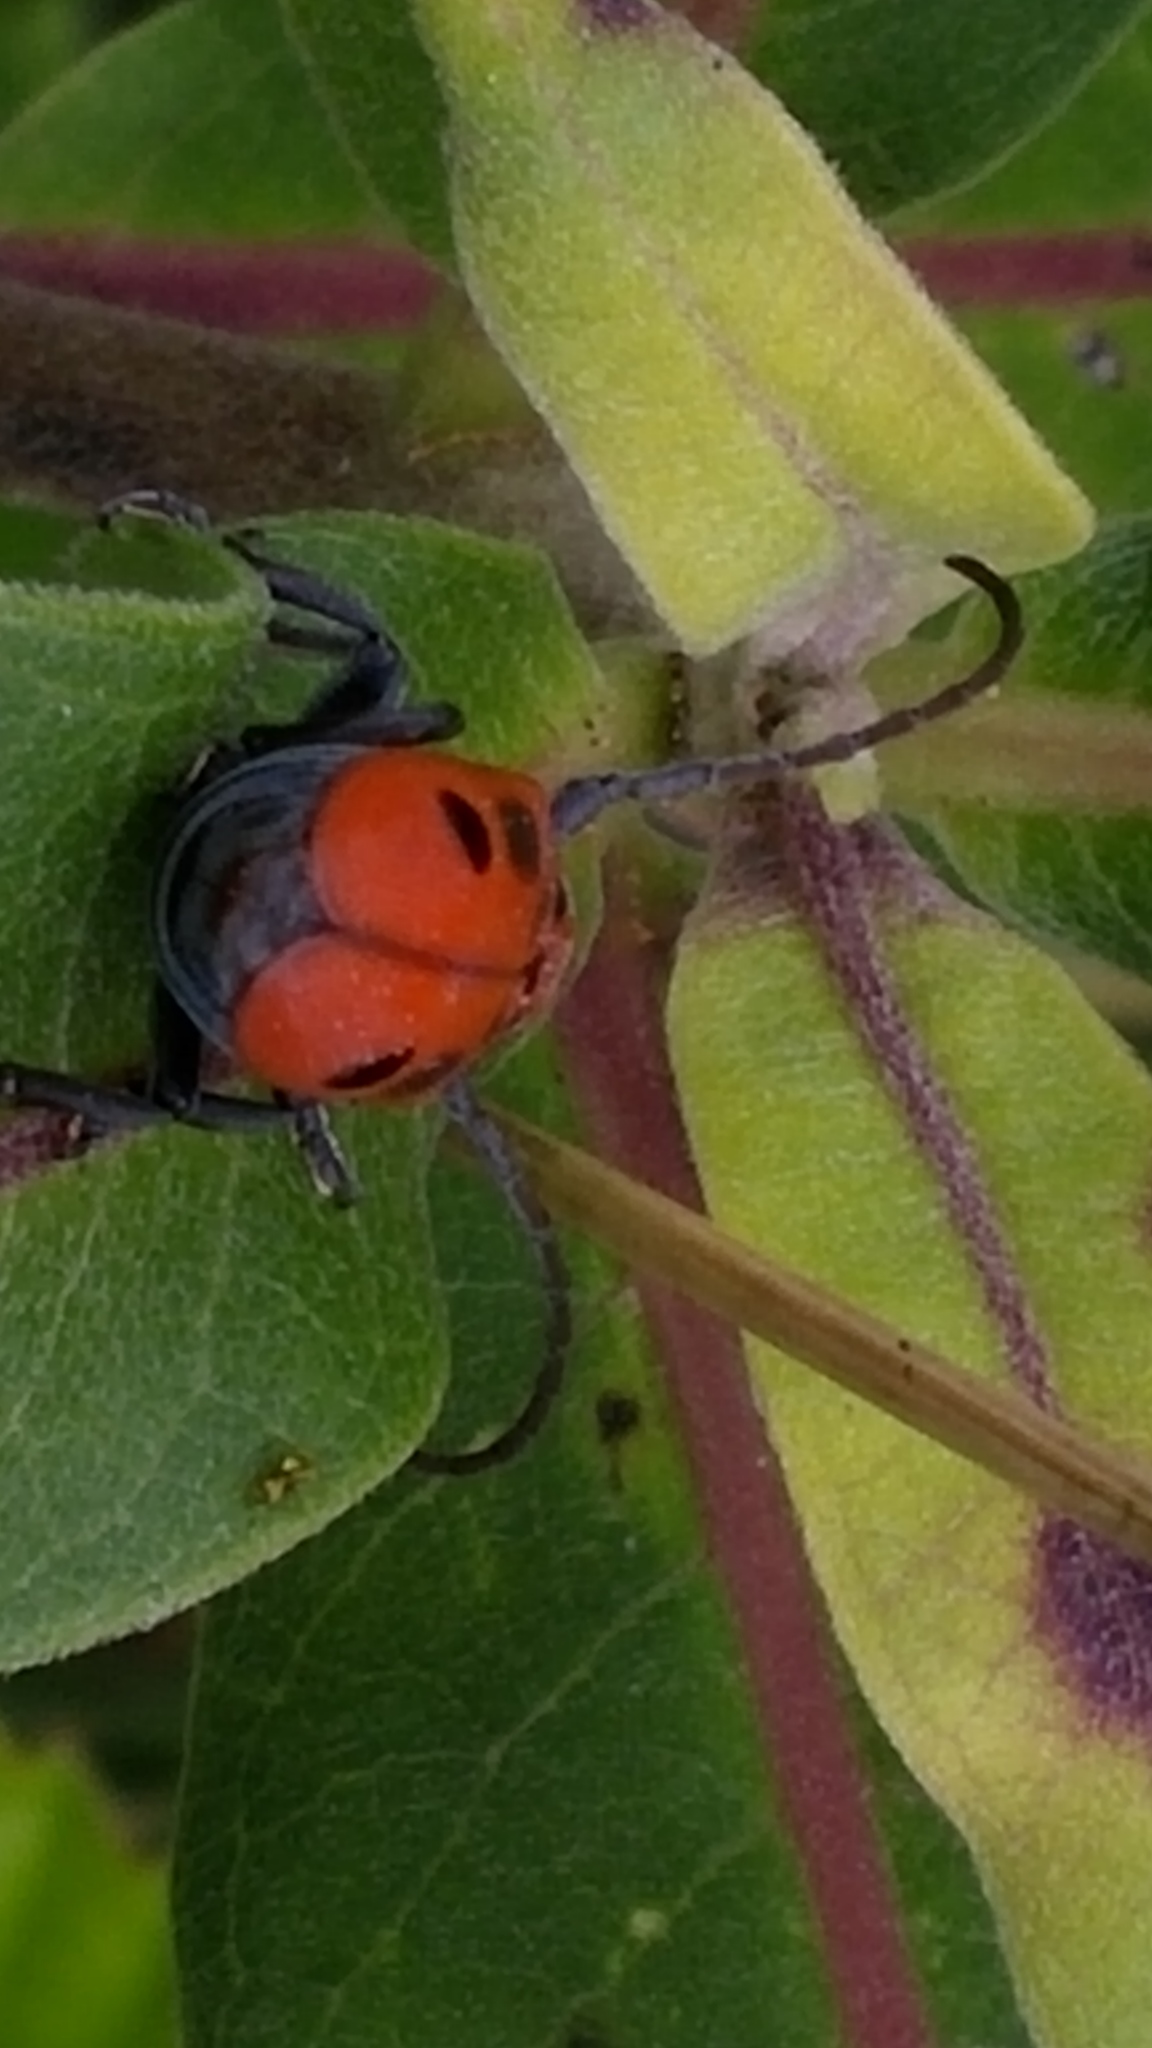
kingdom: Animalia
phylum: Arthropoda
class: Insecta
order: Coleoptera
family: Cerambycidae
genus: Tetraopes
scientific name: Tetraopes tetrophthalmus
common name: Red milkweed beetle
